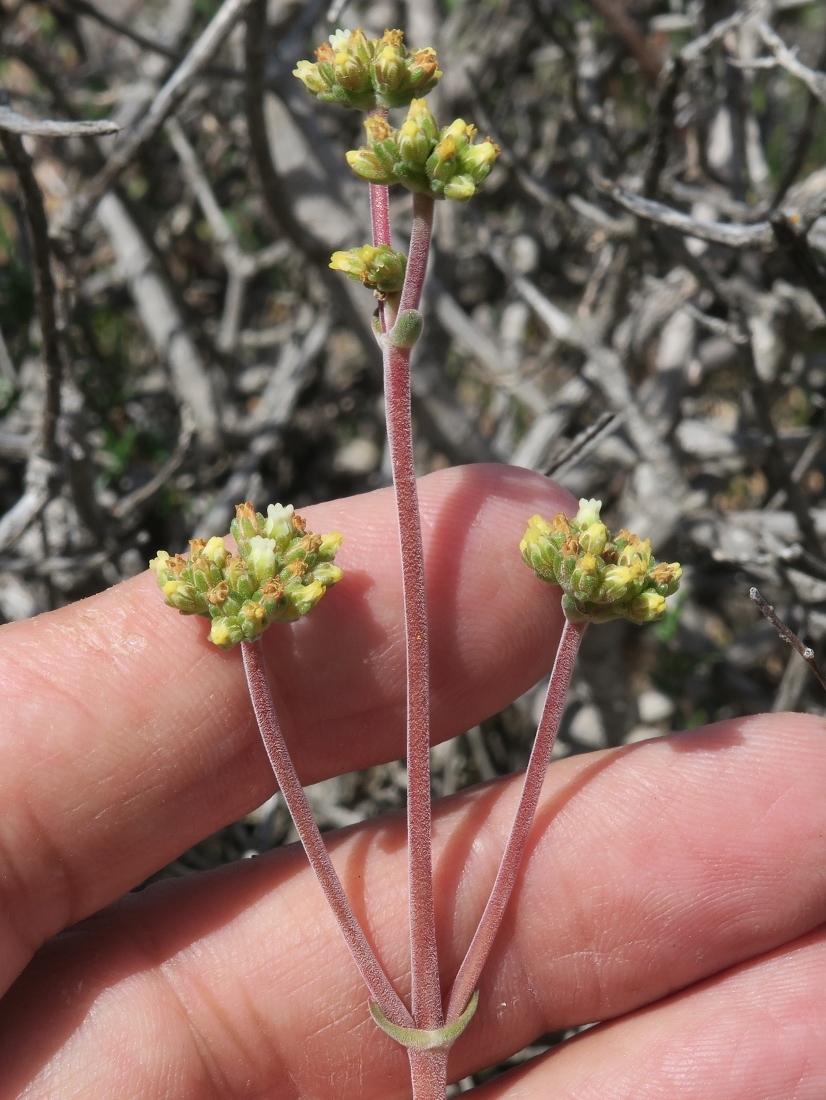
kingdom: Plantae
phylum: Tracheophyta
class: Magnoliopsida
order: Saxifragales
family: Crassulaceae
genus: Crassula
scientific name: Crassula subacaulis
